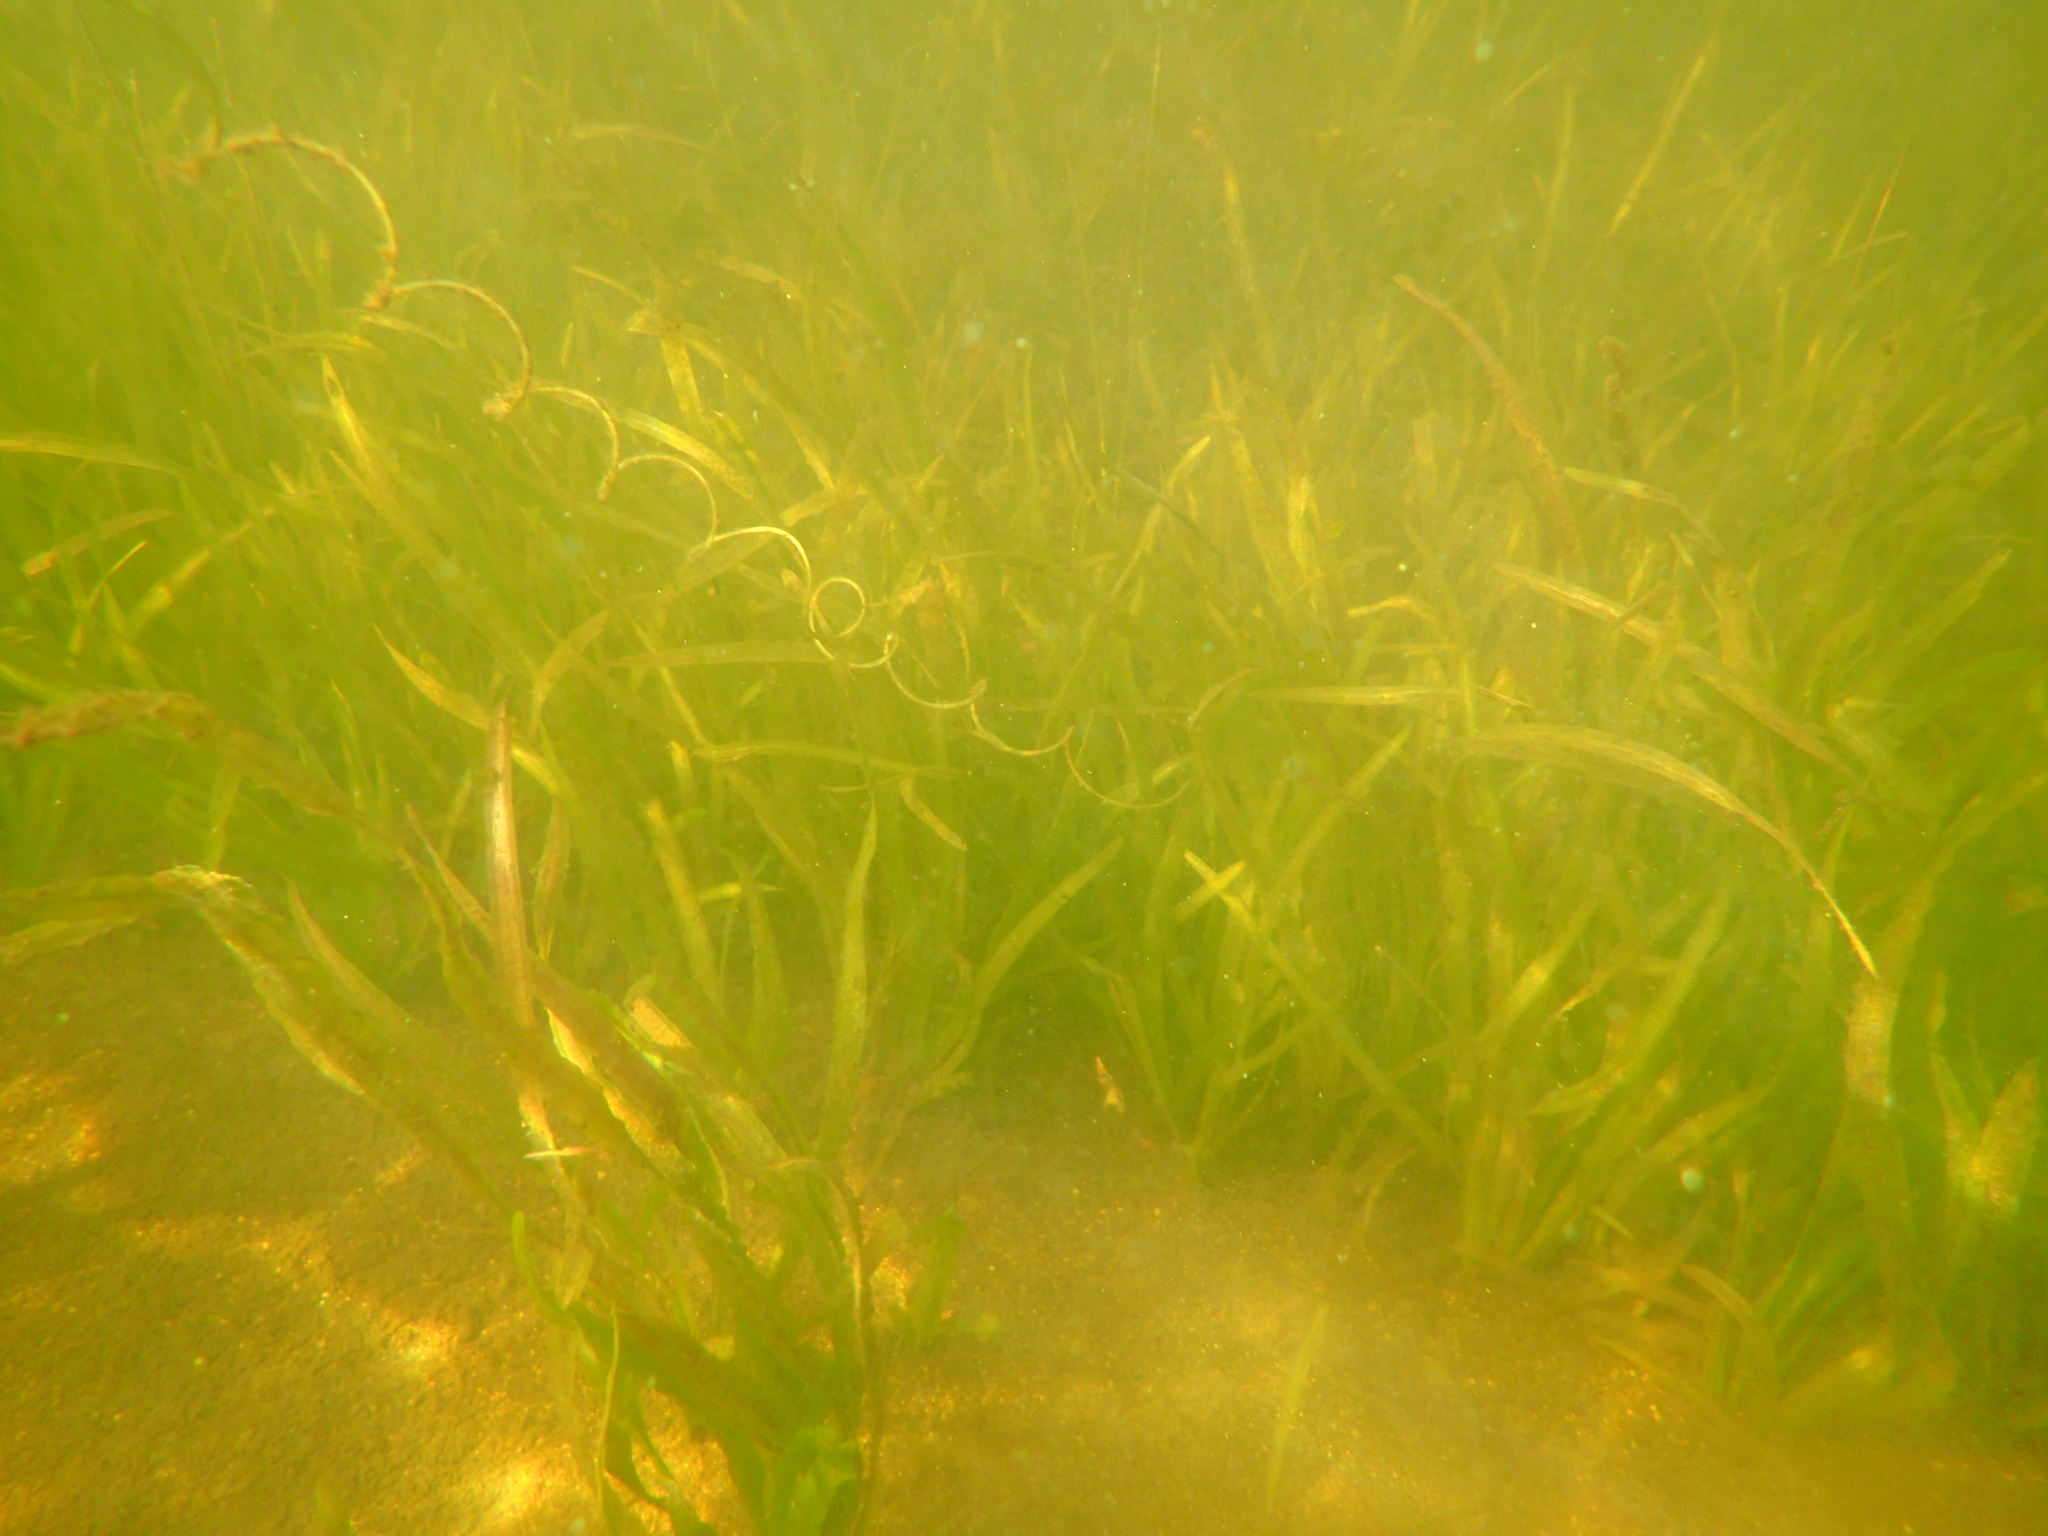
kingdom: Plantae
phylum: Tracheophyta
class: Liliopsida
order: Alismatales
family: Hydrocharitaceae
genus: Vallisneria
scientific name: Vallisneria americana
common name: American eelgrass
